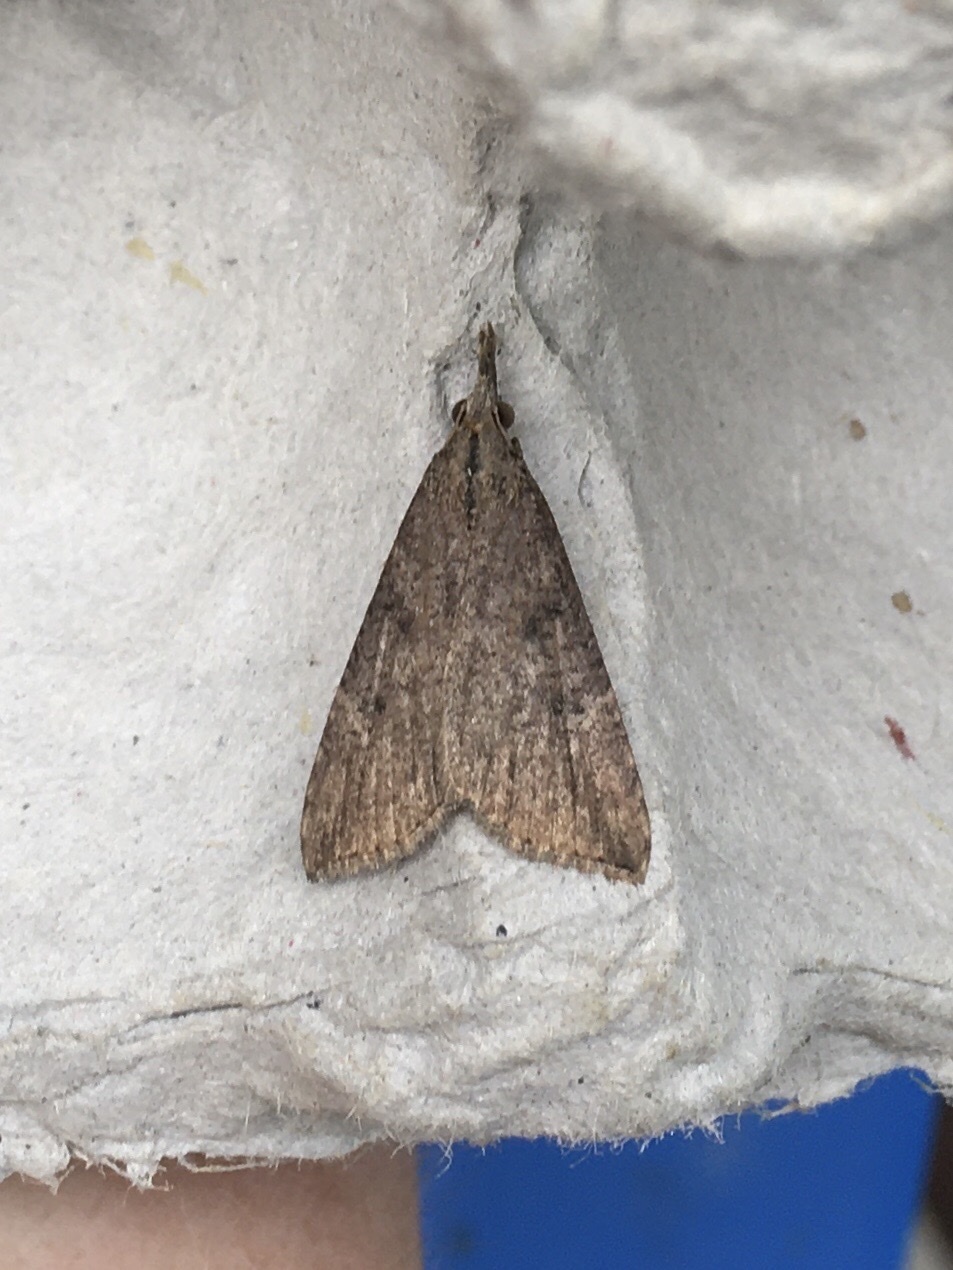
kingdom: Animalia
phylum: Arthropoda
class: Insecta
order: Lepidoptera
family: Erebidae
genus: Hypena
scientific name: Hypena humuli
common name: Hop vine snout
